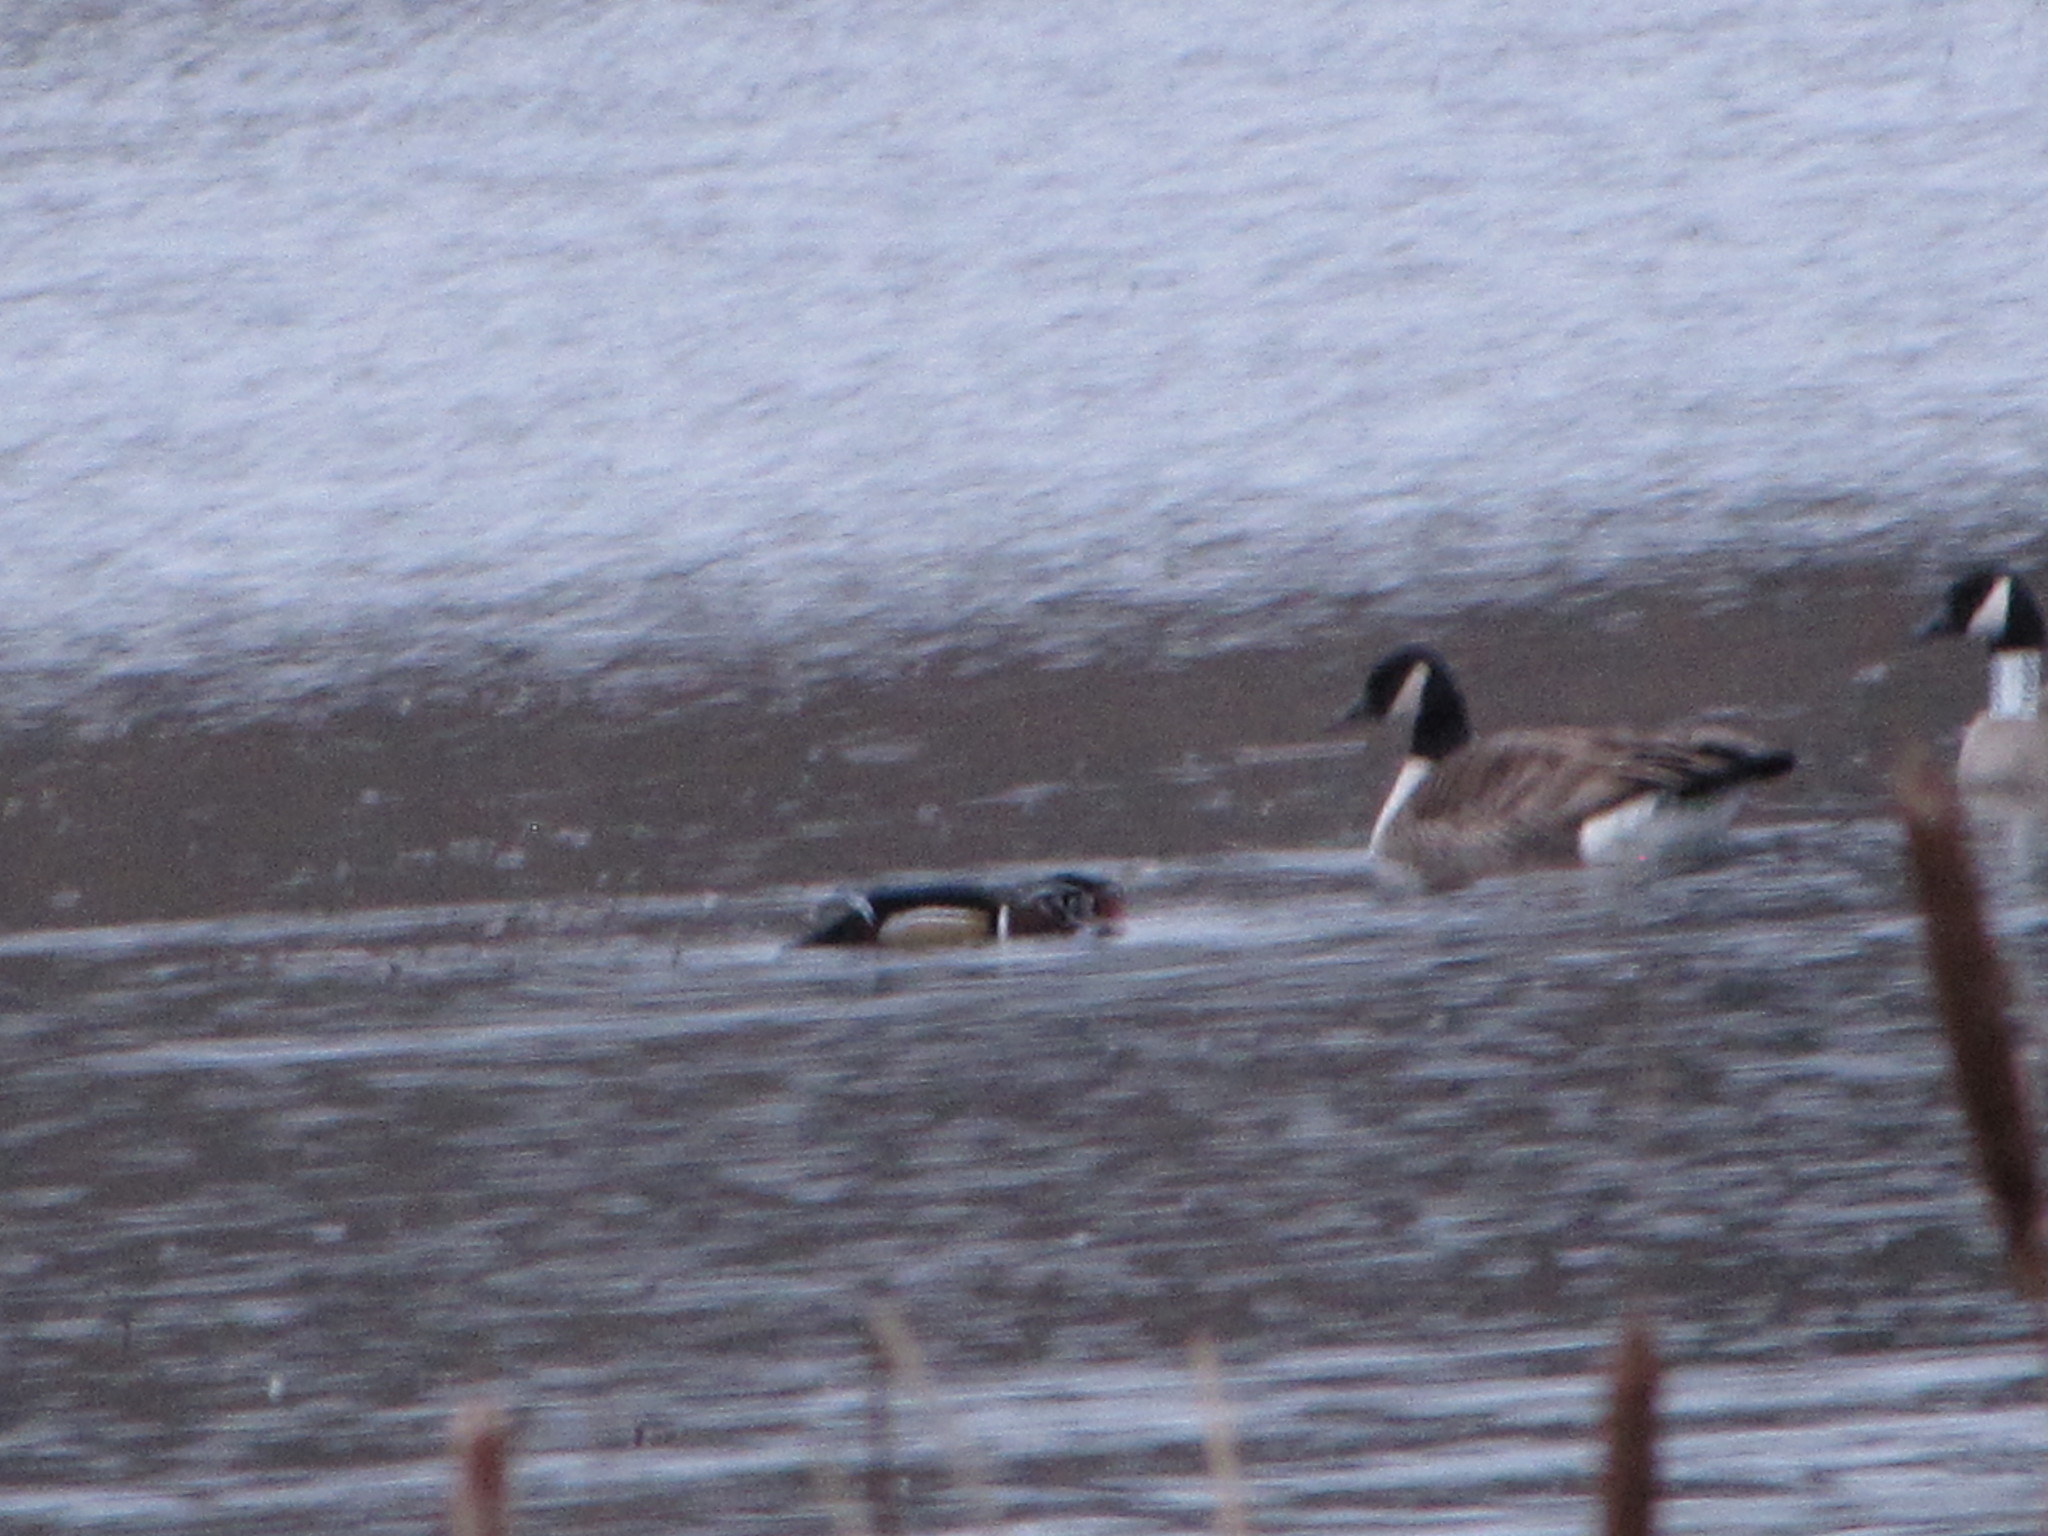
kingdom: Animalia
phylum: Chordata
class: Aves
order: Anseriformes
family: Anatidae
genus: Branta
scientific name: Branta canadensis
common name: Canada goose
